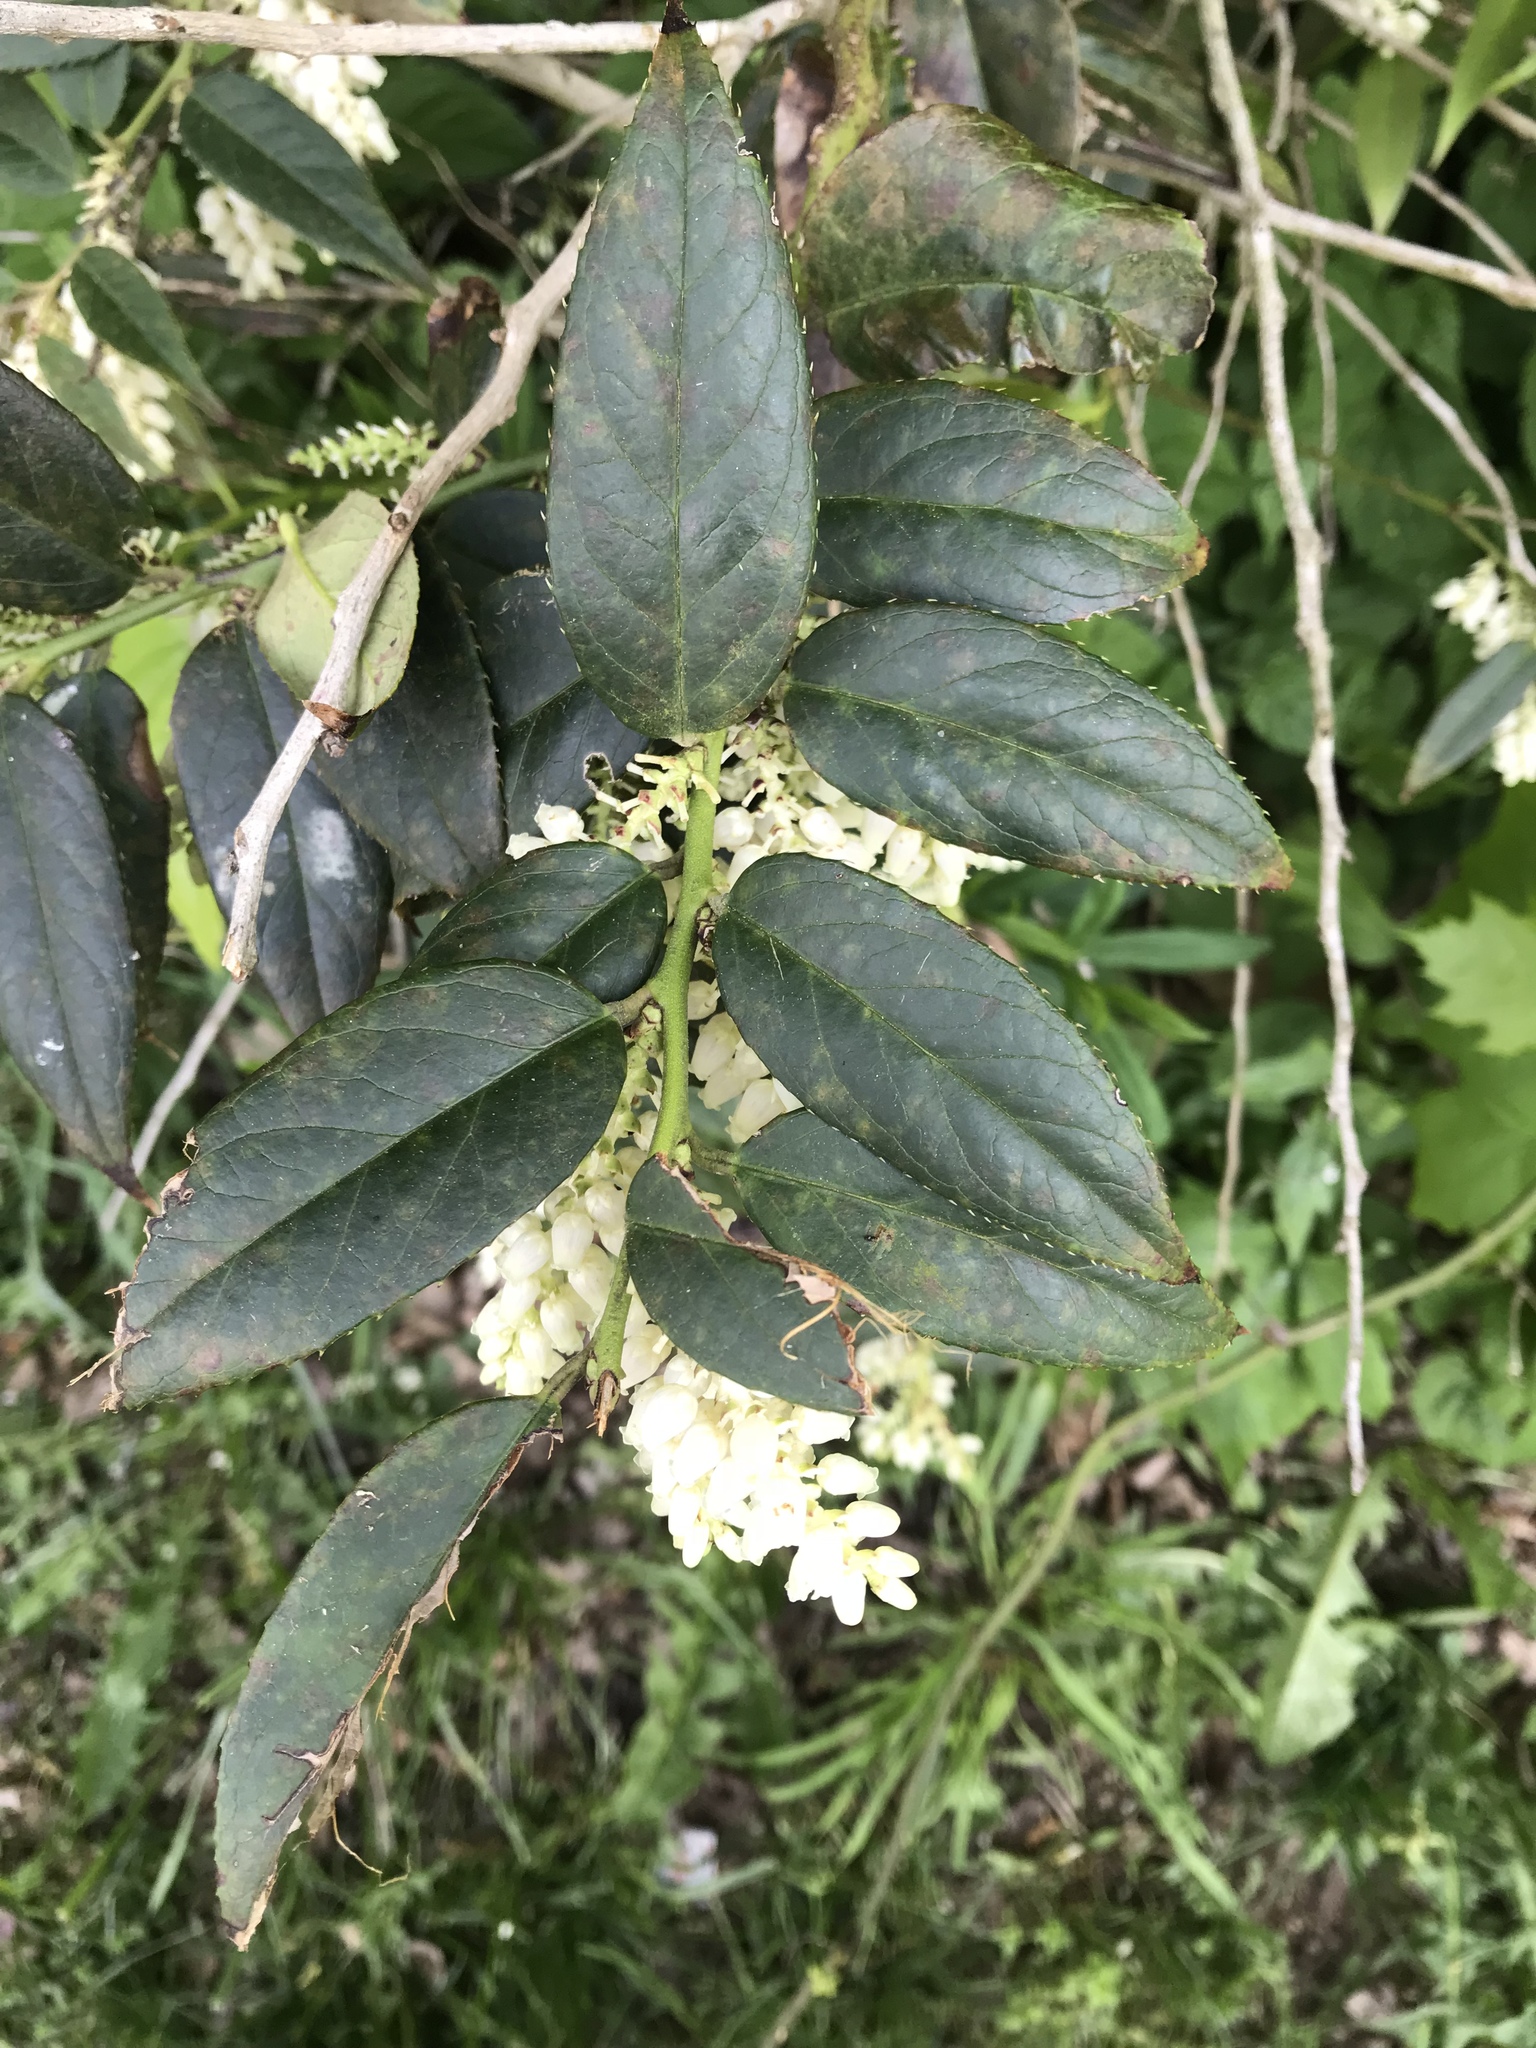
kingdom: Plantae
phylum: Tracheophyta
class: Magnoliopsida
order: Ericales
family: Ericaceae
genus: Leucothoe
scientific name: Leucothoe fontanesiana
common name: Fetterbush
